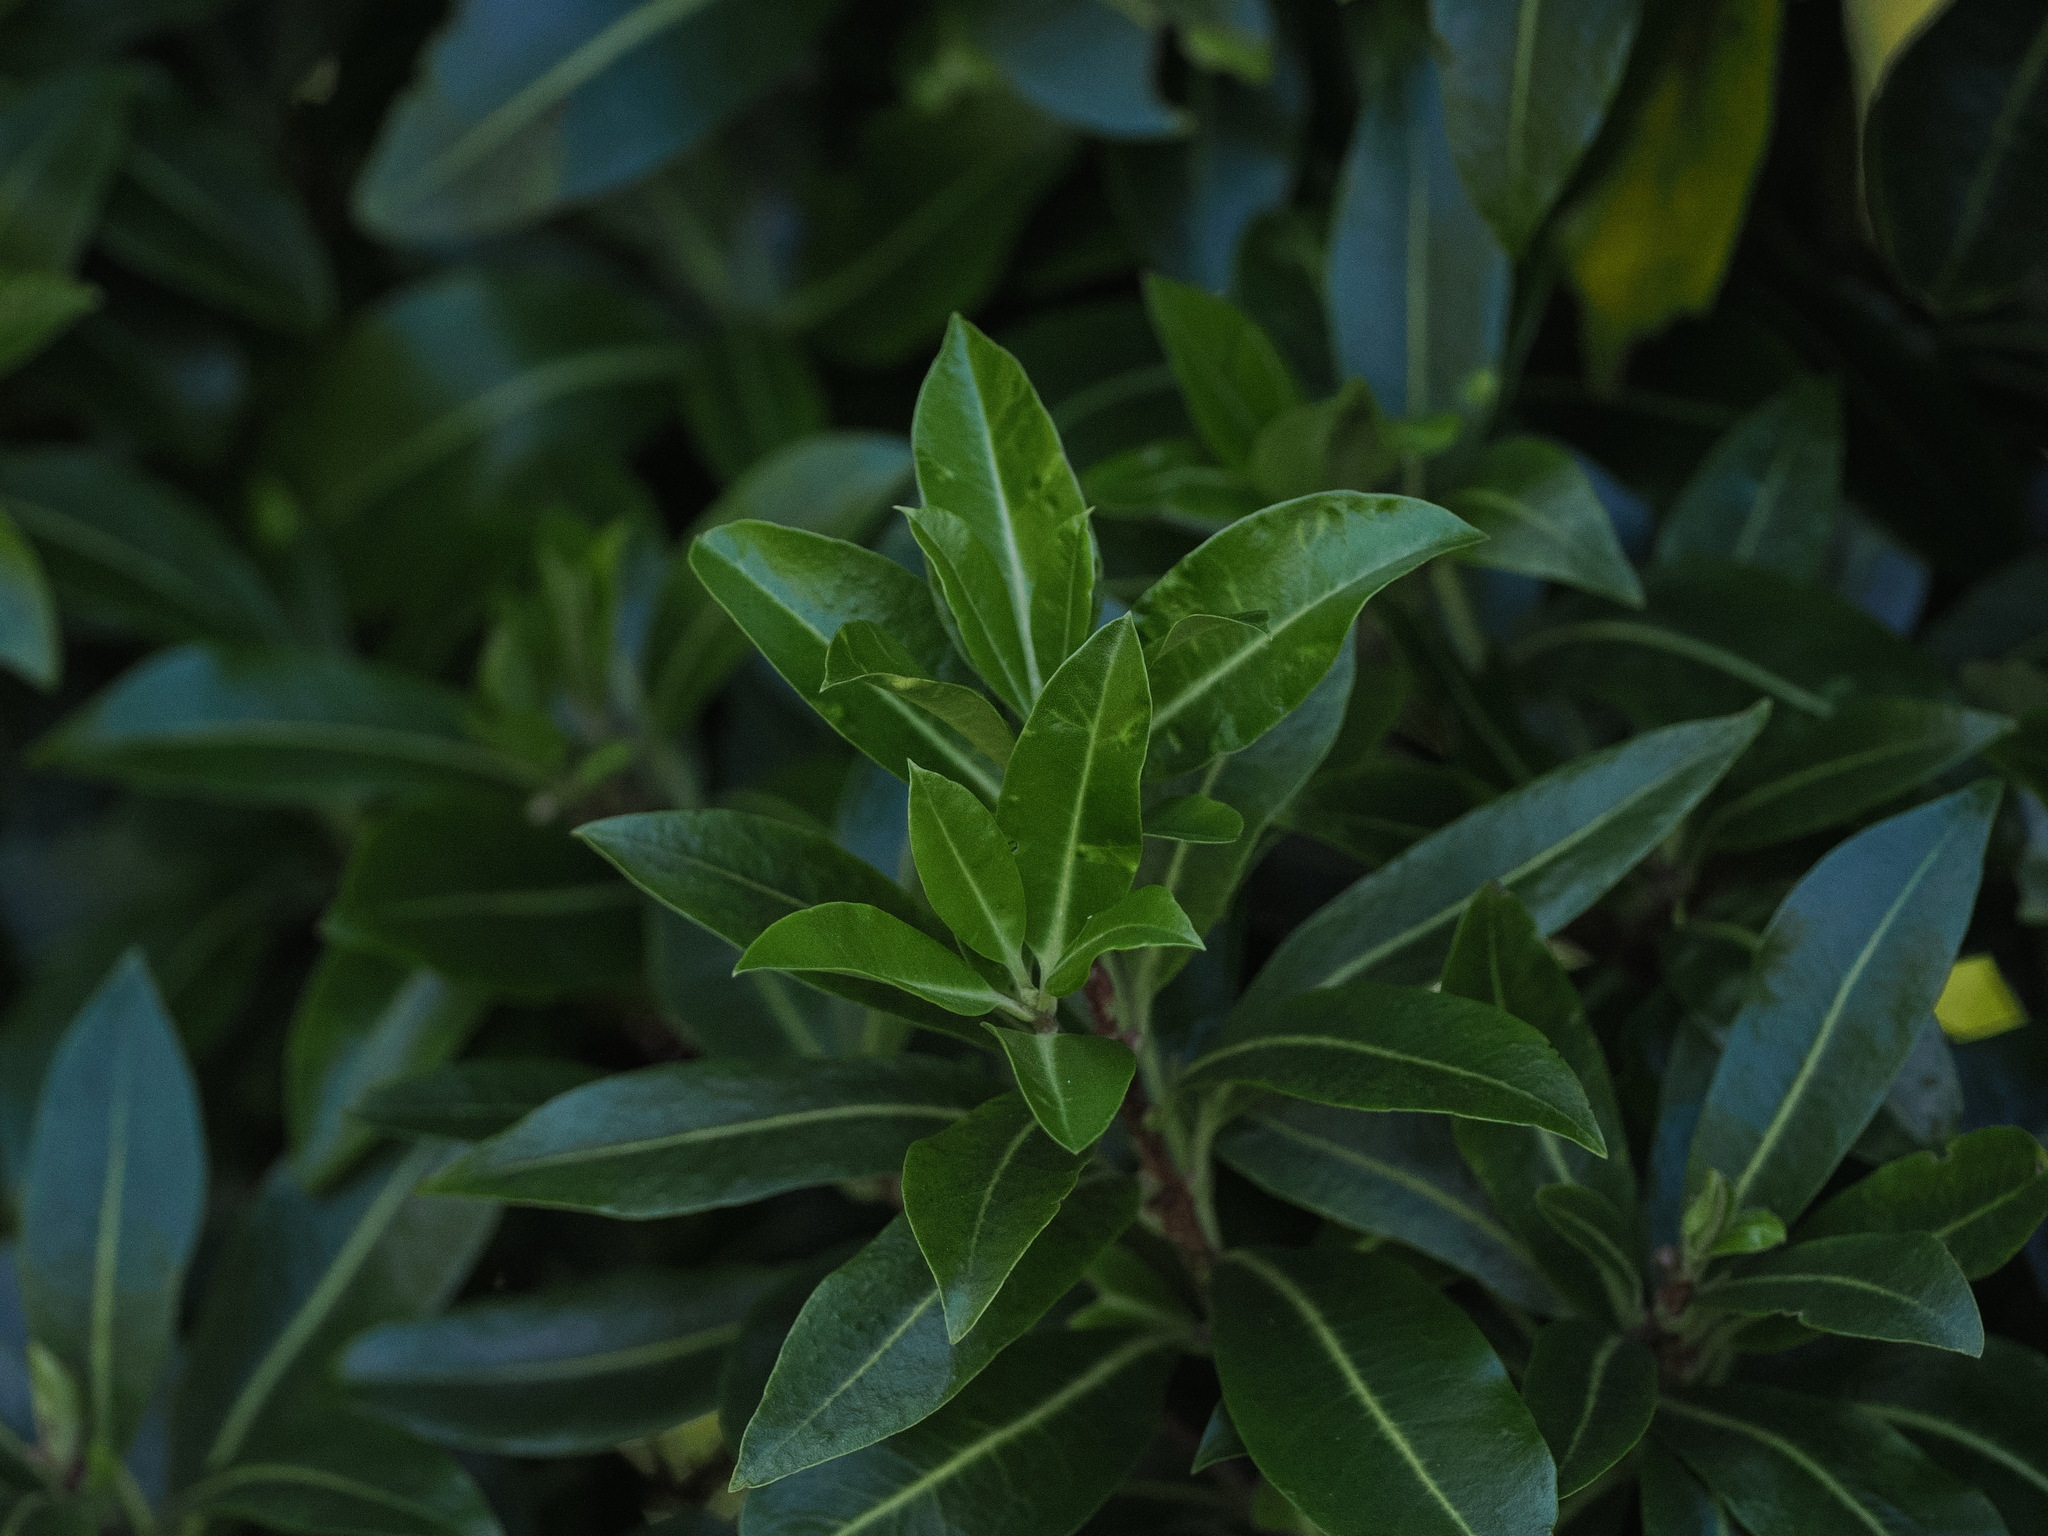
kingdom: Plantae
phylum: Tracheophyta
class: Magnoliopsida
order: Apiales
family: Pittosporaceae
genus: Pittosporum
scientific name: Pittosporum colensoi
